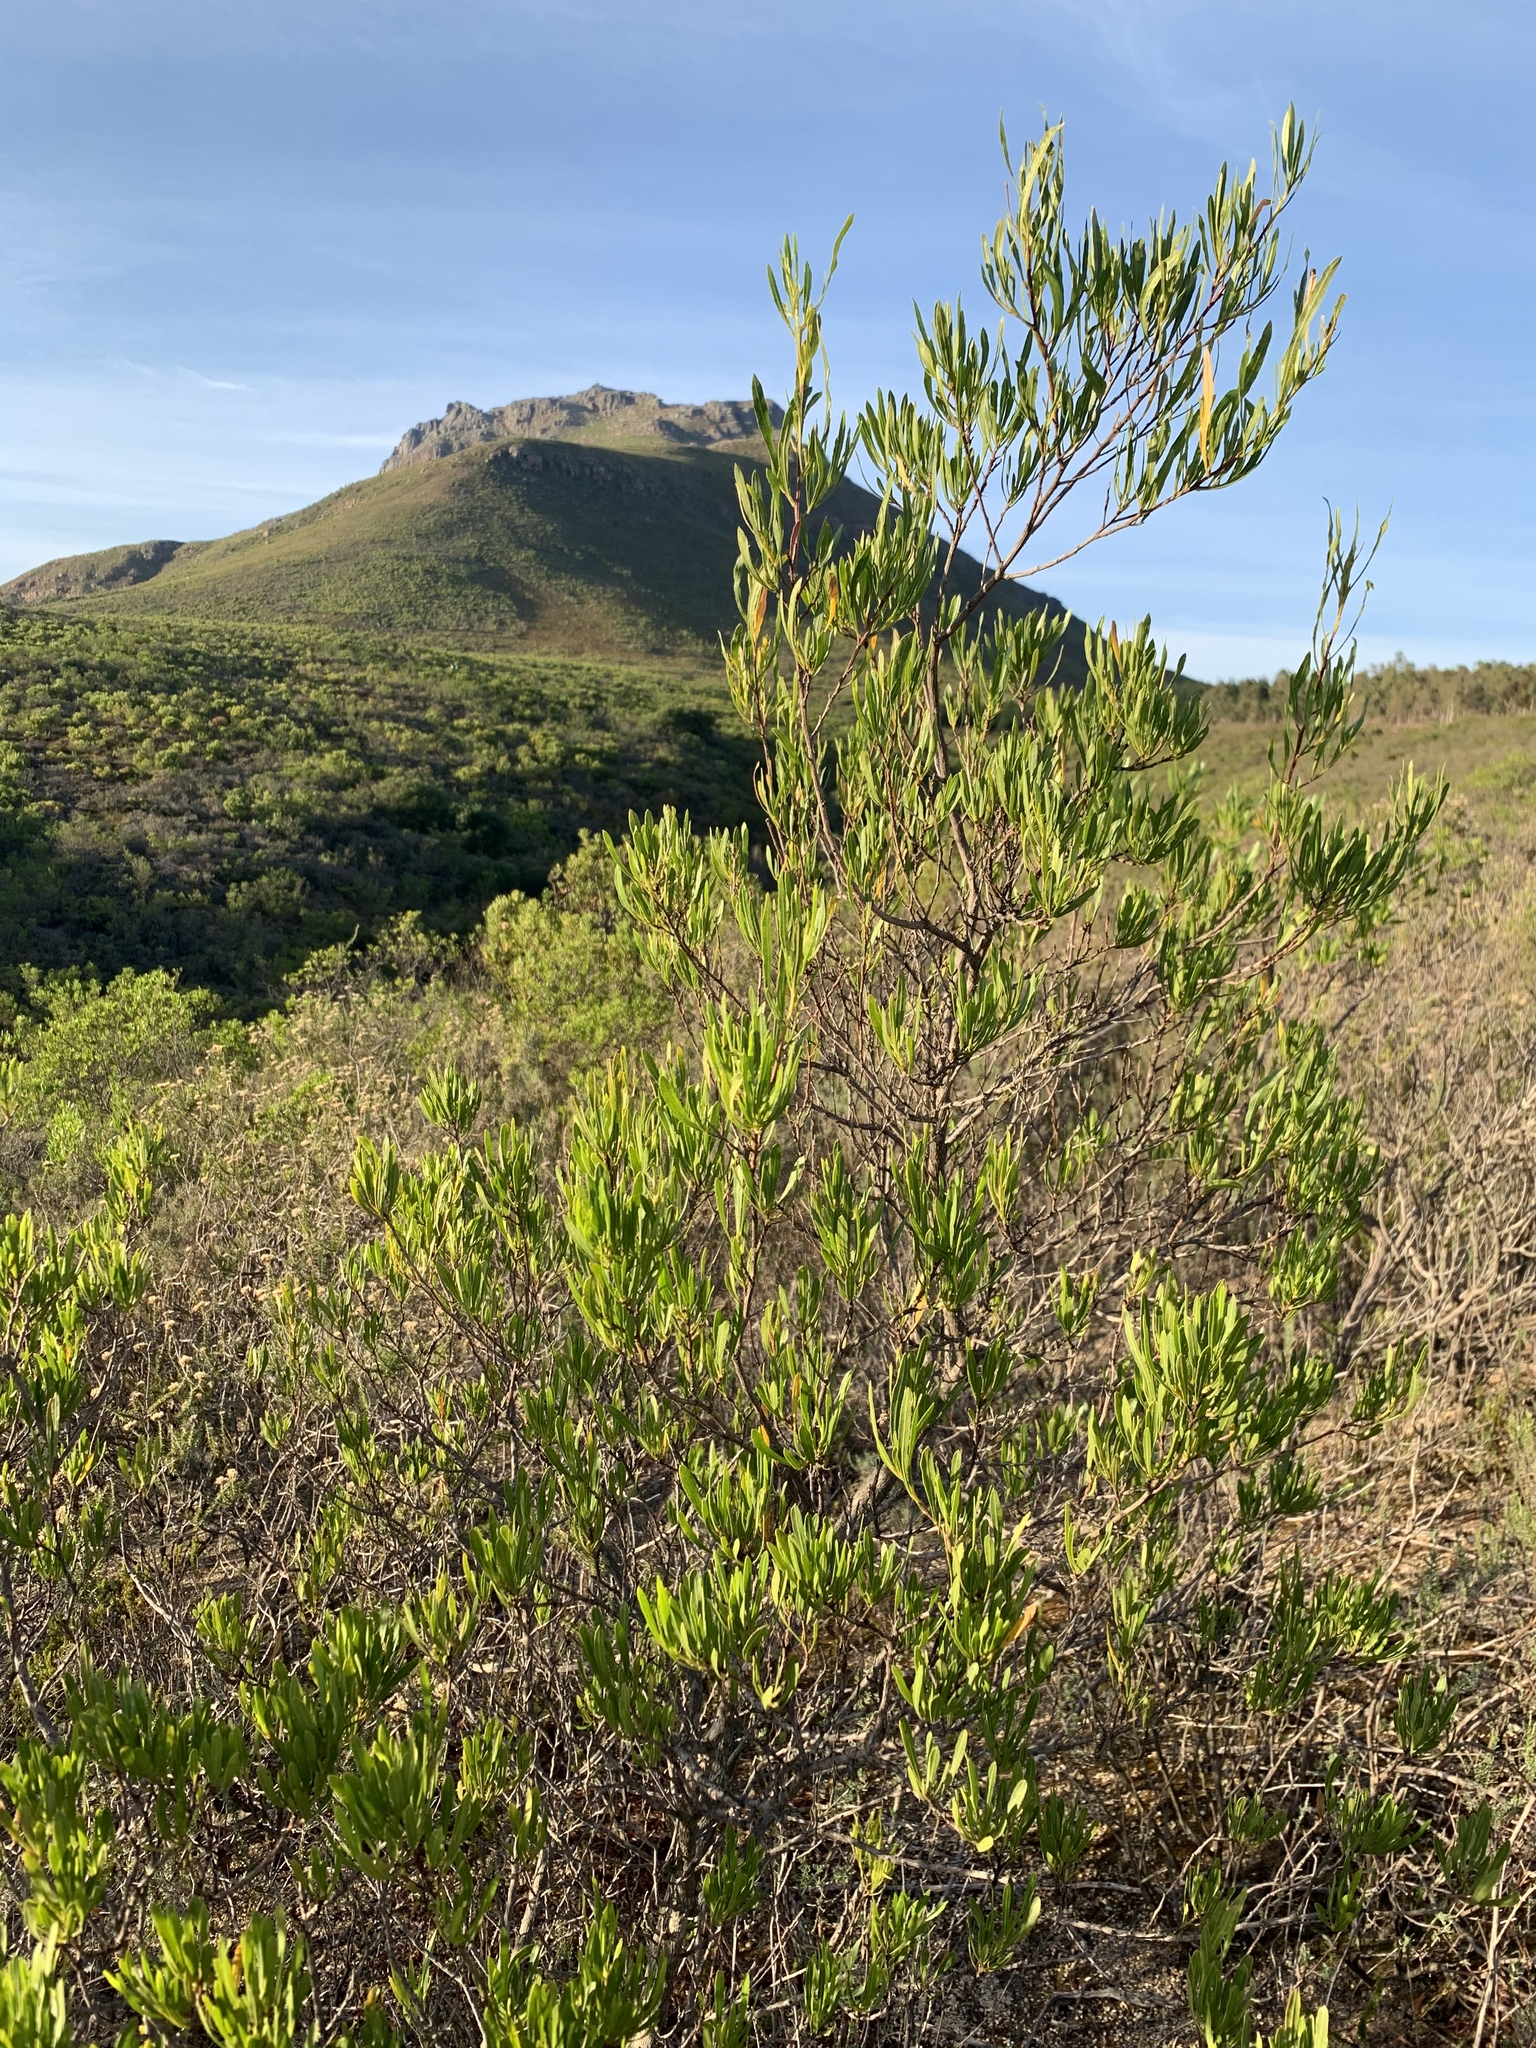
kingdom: Plantae
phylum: Tracheophyta
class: Magnoliopsida
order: Sapindales
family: Sapindaceae
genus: Dodonaea
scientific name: Dodonaea viscosa
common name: Hopbush
